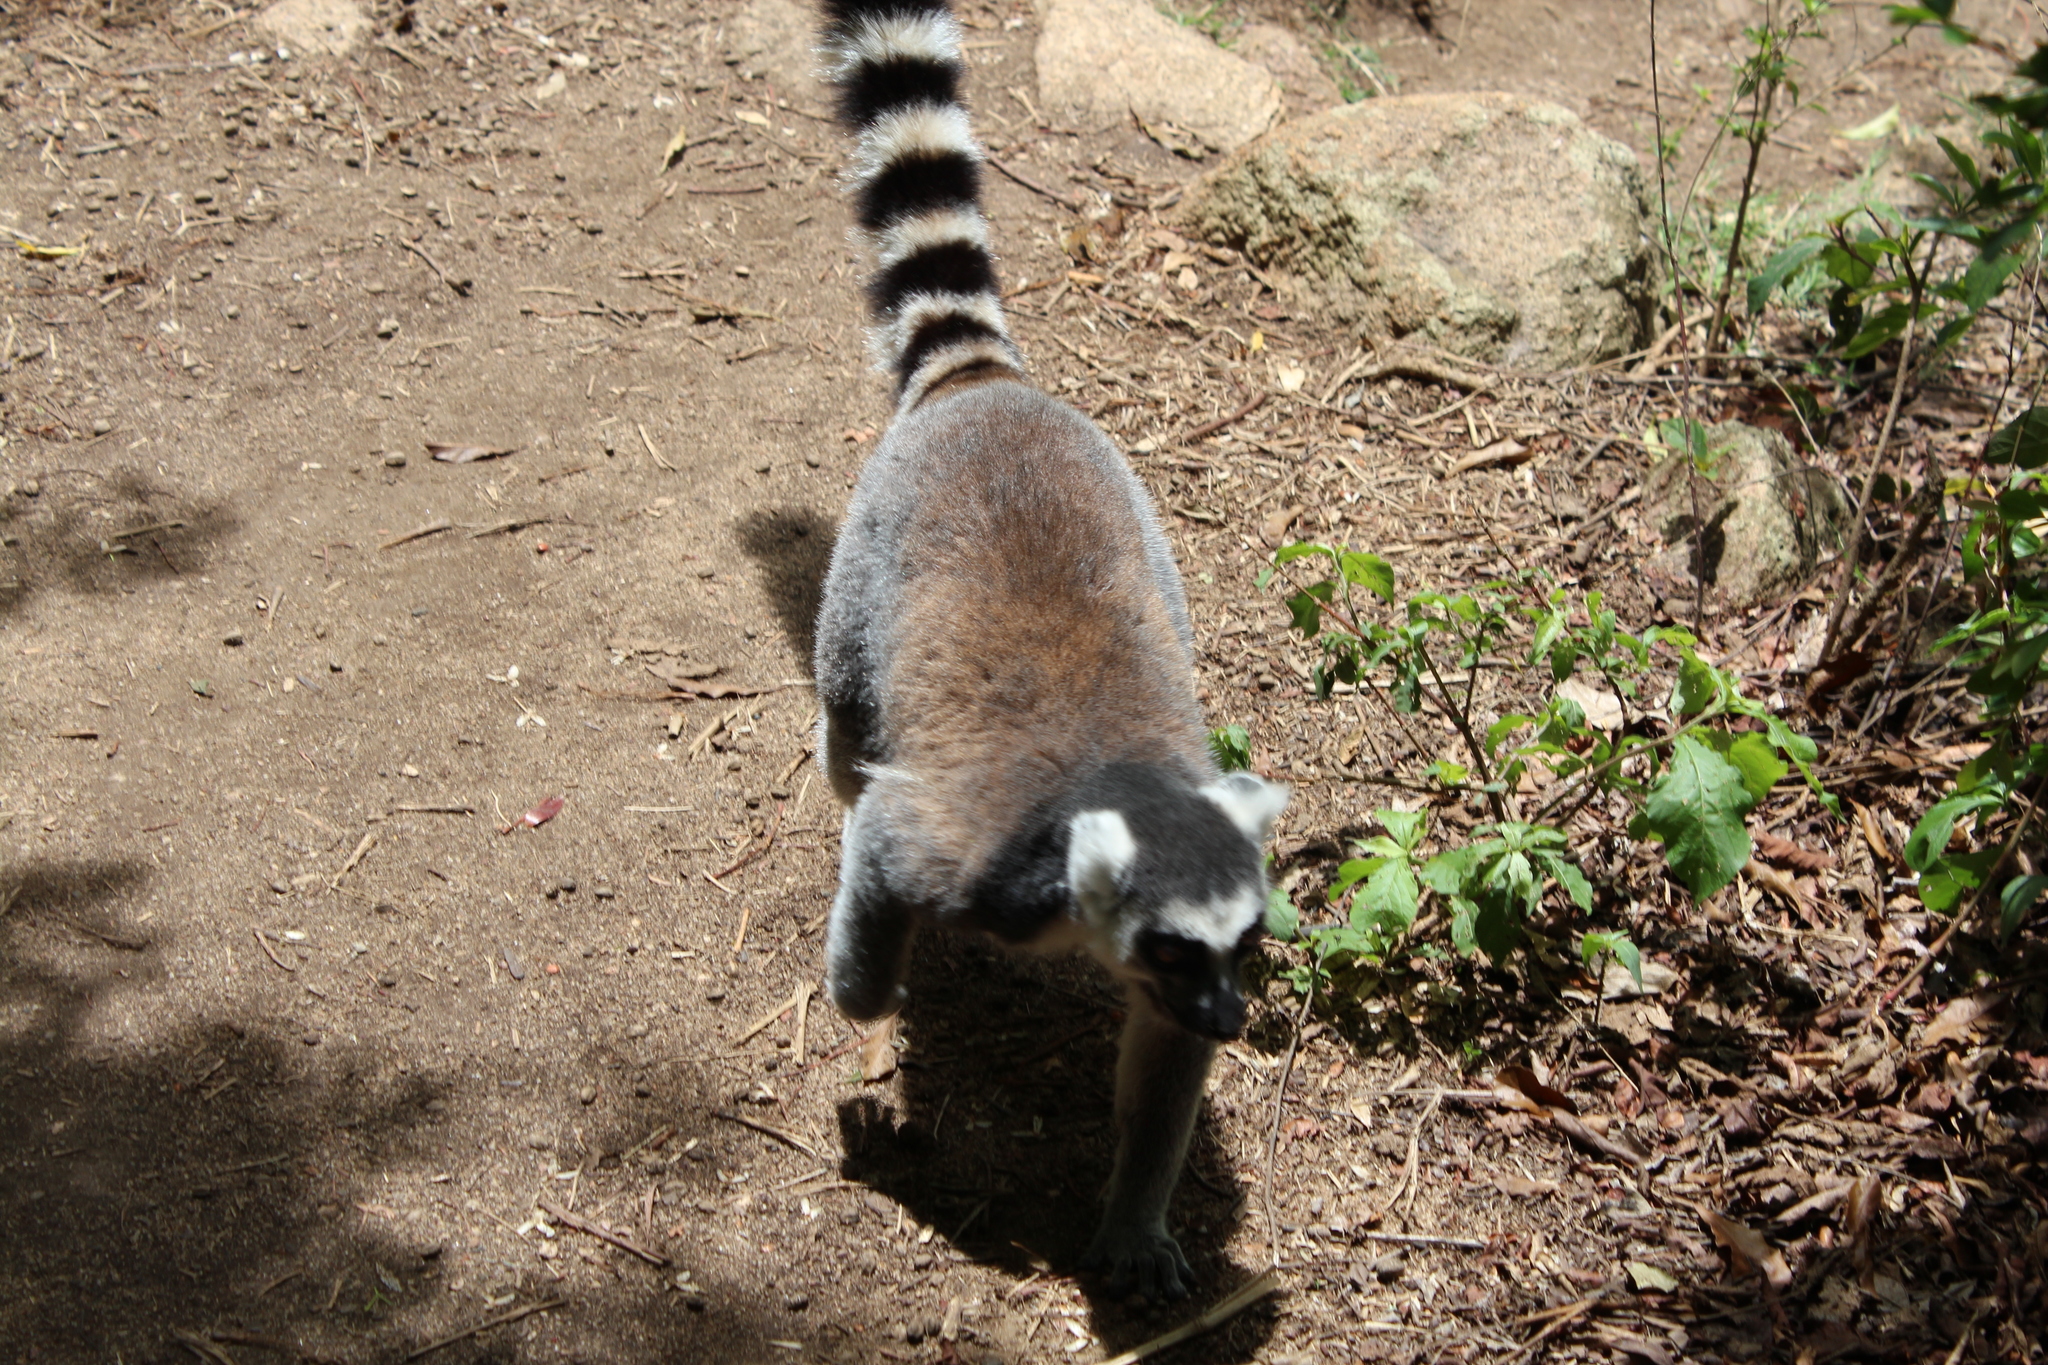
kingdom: Animalia
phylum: Chordata
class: Mammalia
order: Primates
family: Lemuridae
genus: Lemur
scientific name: Lemur catta
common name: Ring-tailed lemur
